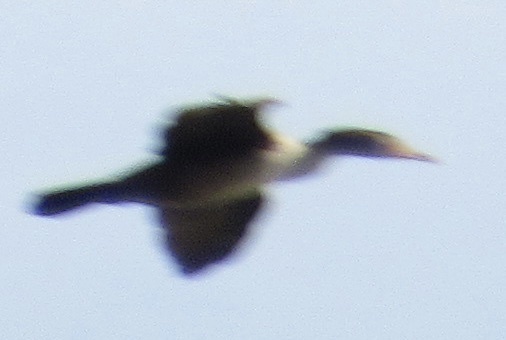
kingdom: Animalia
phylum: Chordata
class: Aves
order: Suliformes
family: Phalacrocoracidae
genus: Phalacrocorax
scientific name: Phalacrocorax auritus
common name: Double-crested cormorant
